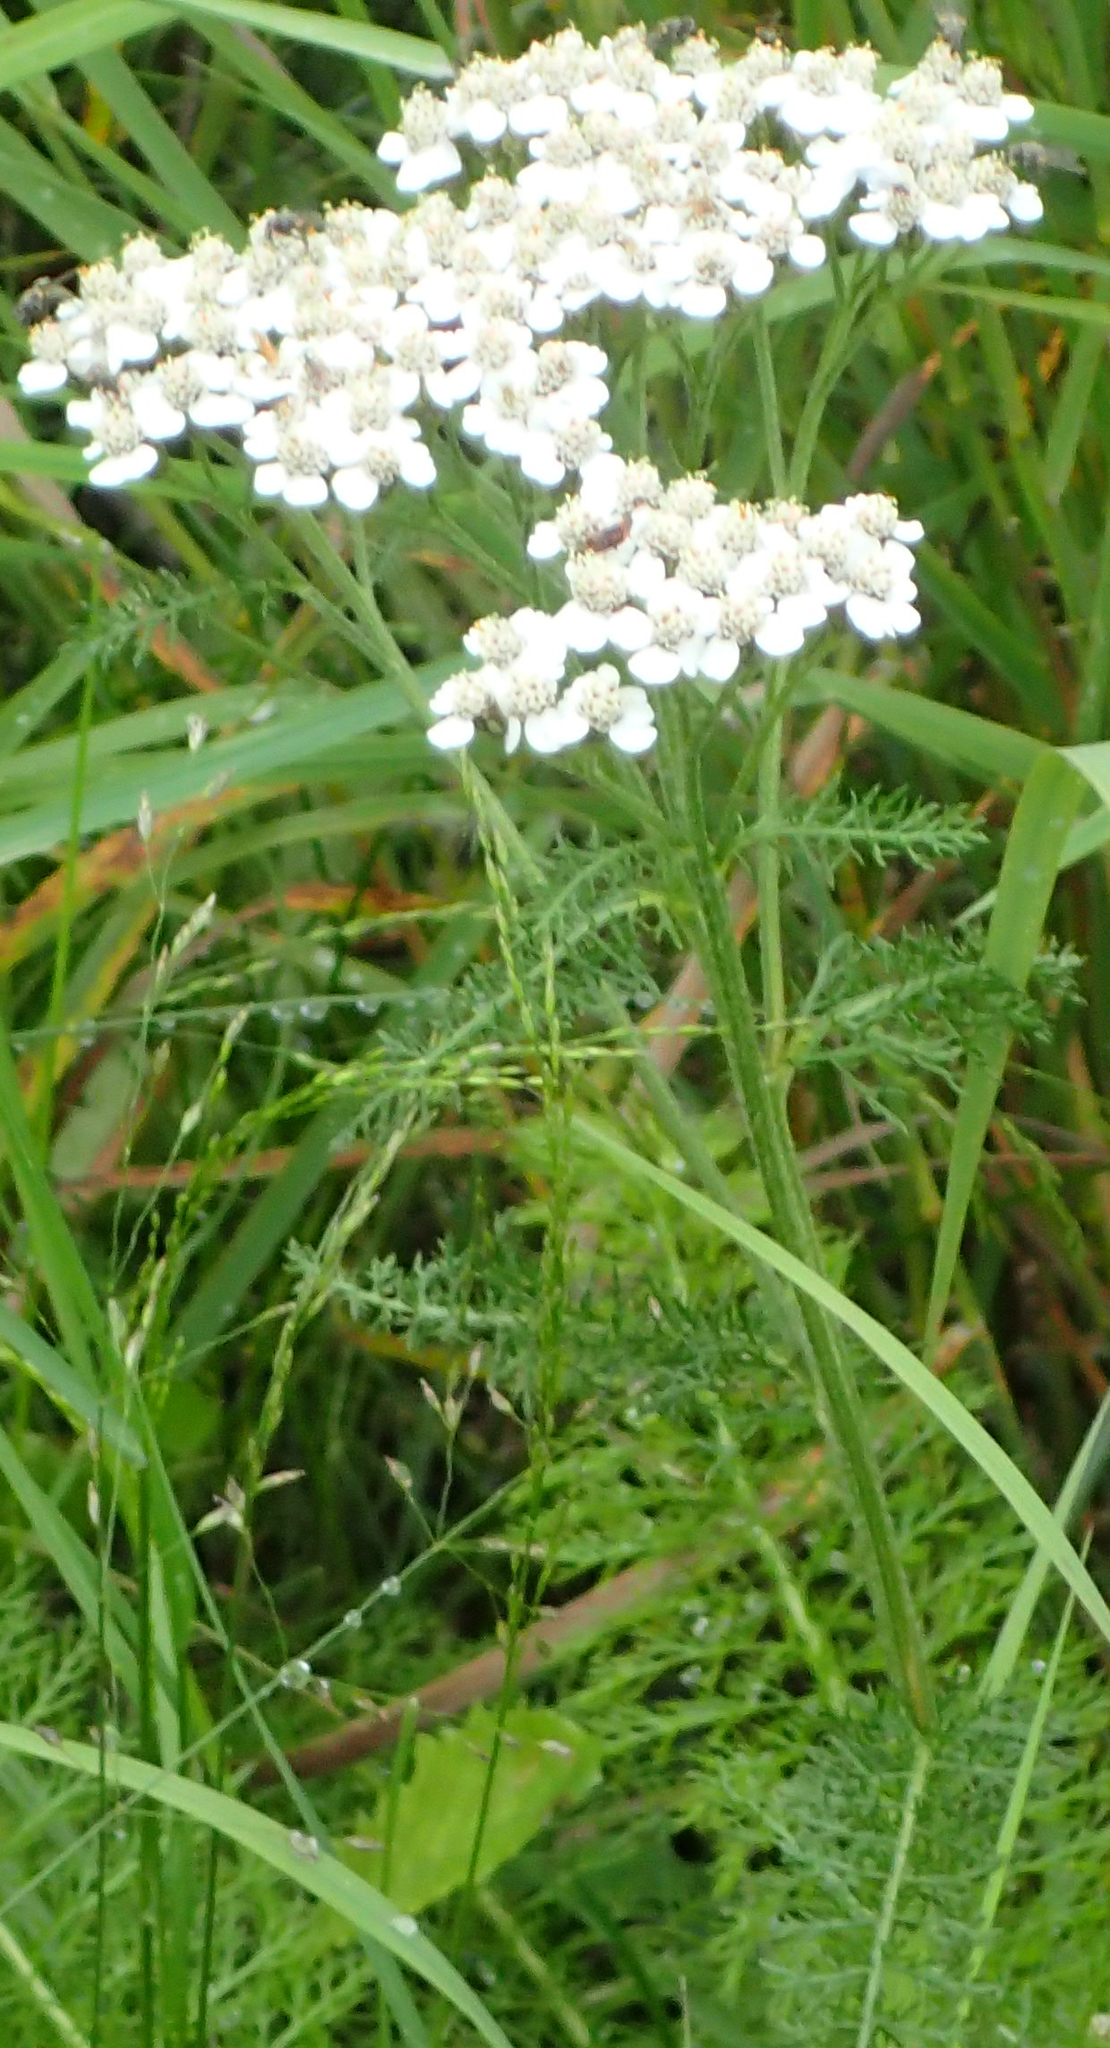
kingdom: Plantae
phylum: Tracheophyta
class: Magnoliopsida
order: Asterales
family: Asteraceae
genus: Achillea
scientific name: Achillea millefolium
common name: Yarrow
